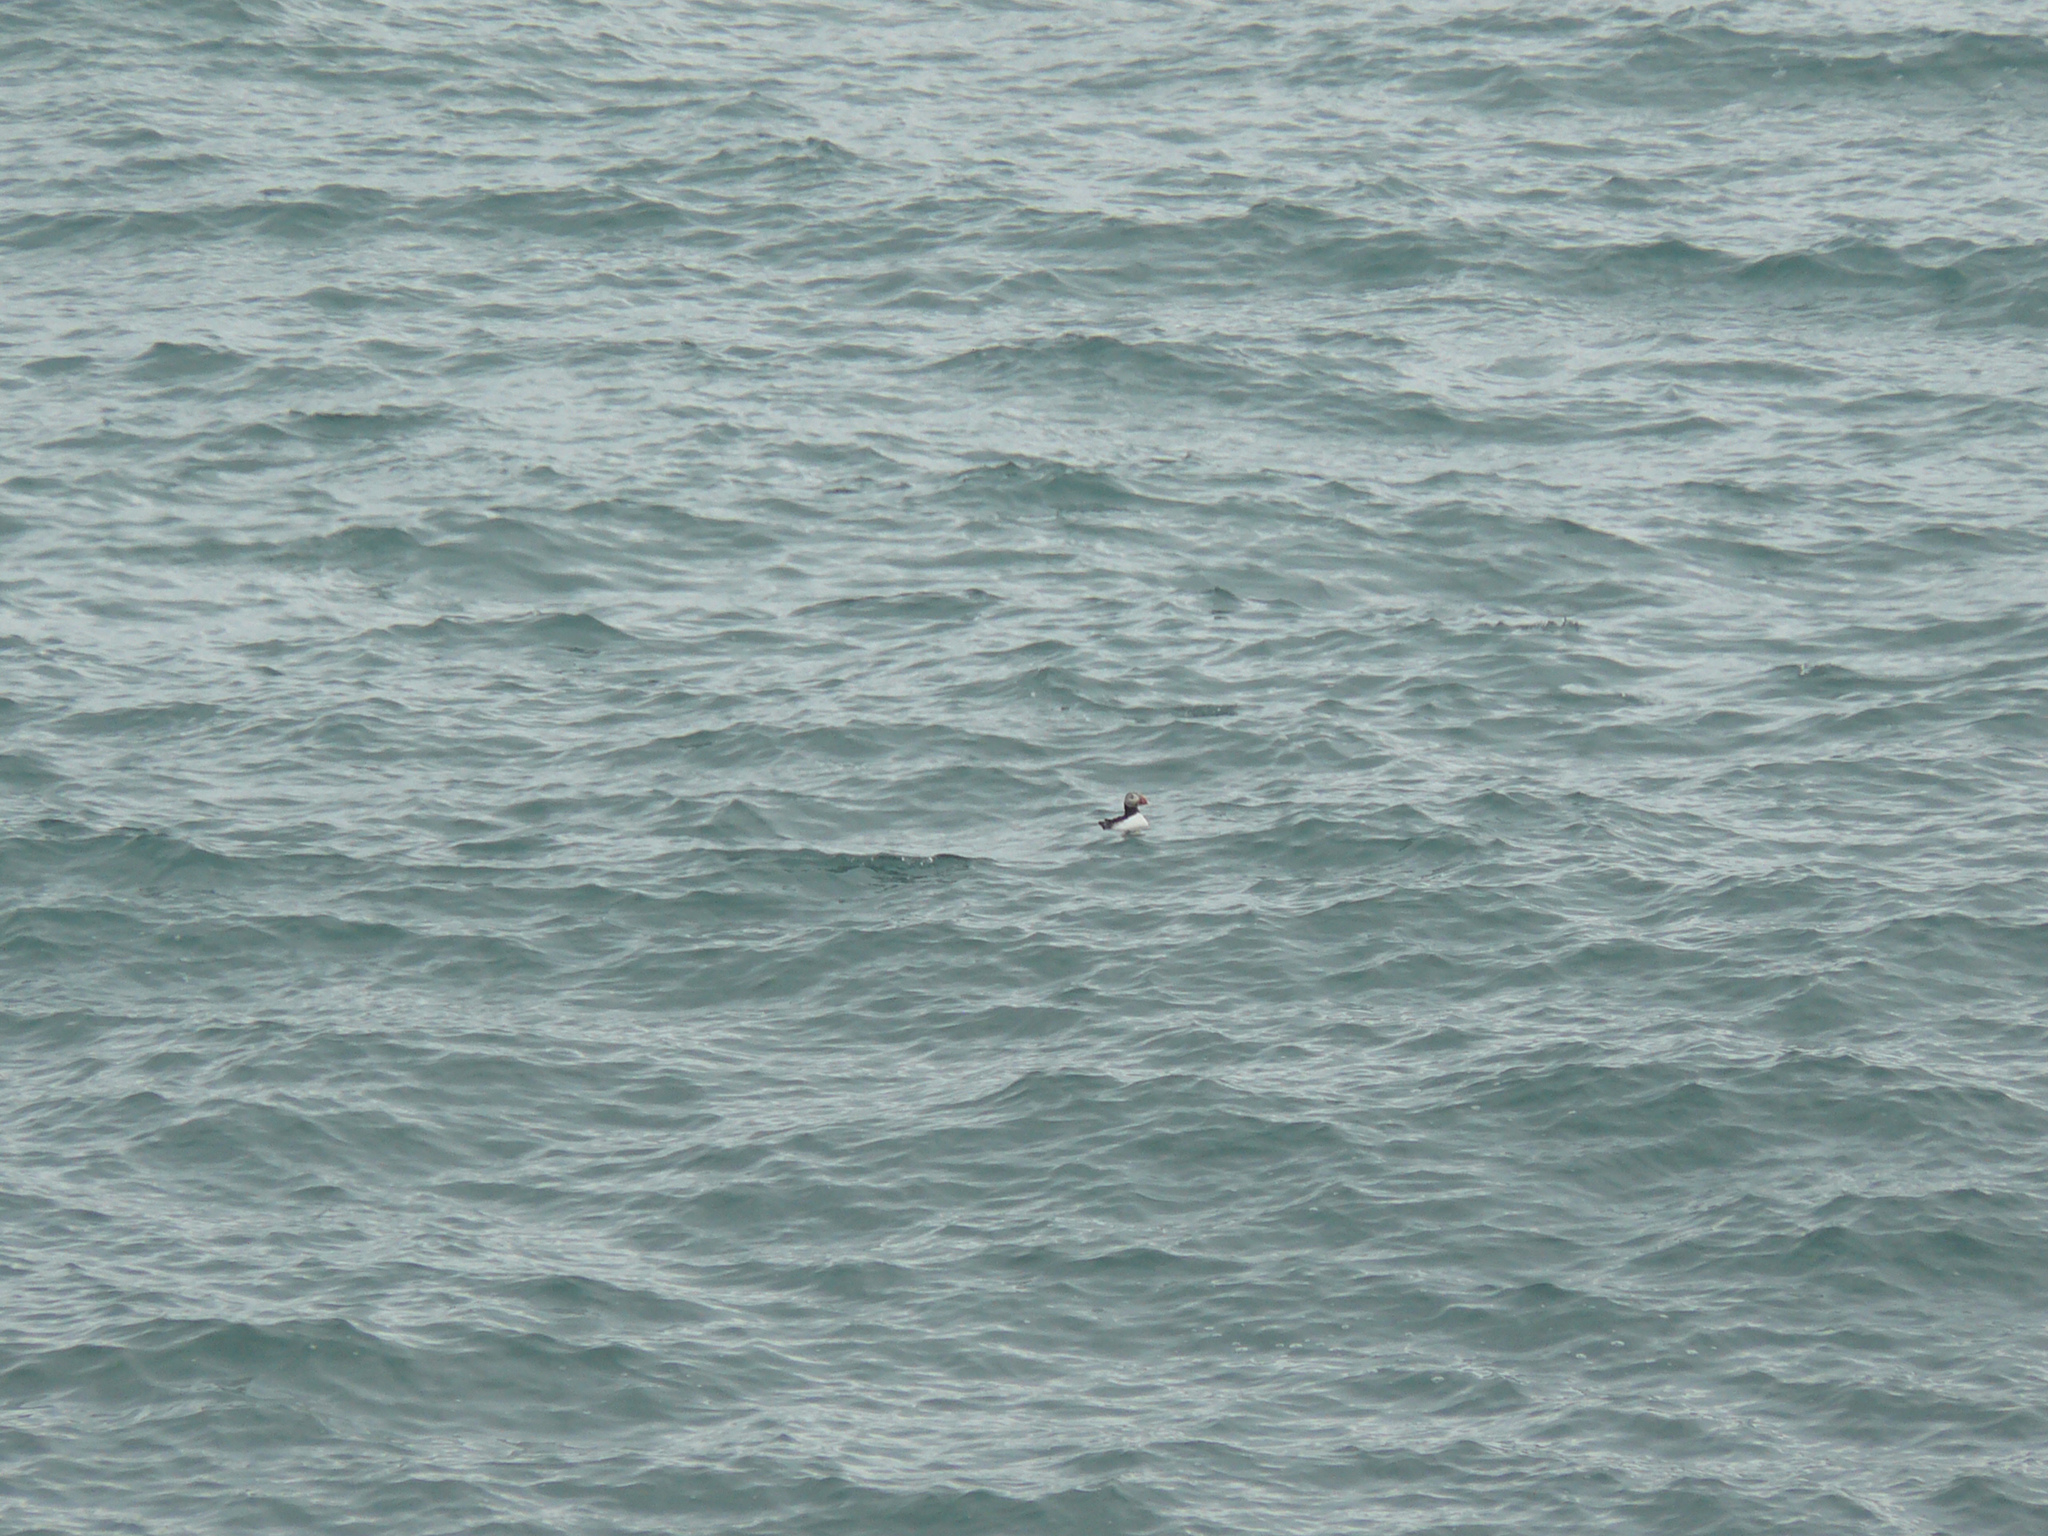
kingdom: Animalia
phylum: Chordata
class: Aves
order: Charadriiformes
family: Alcidae
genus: Fratercula
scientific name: Fratercula arctica
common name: Atlantic puffin
